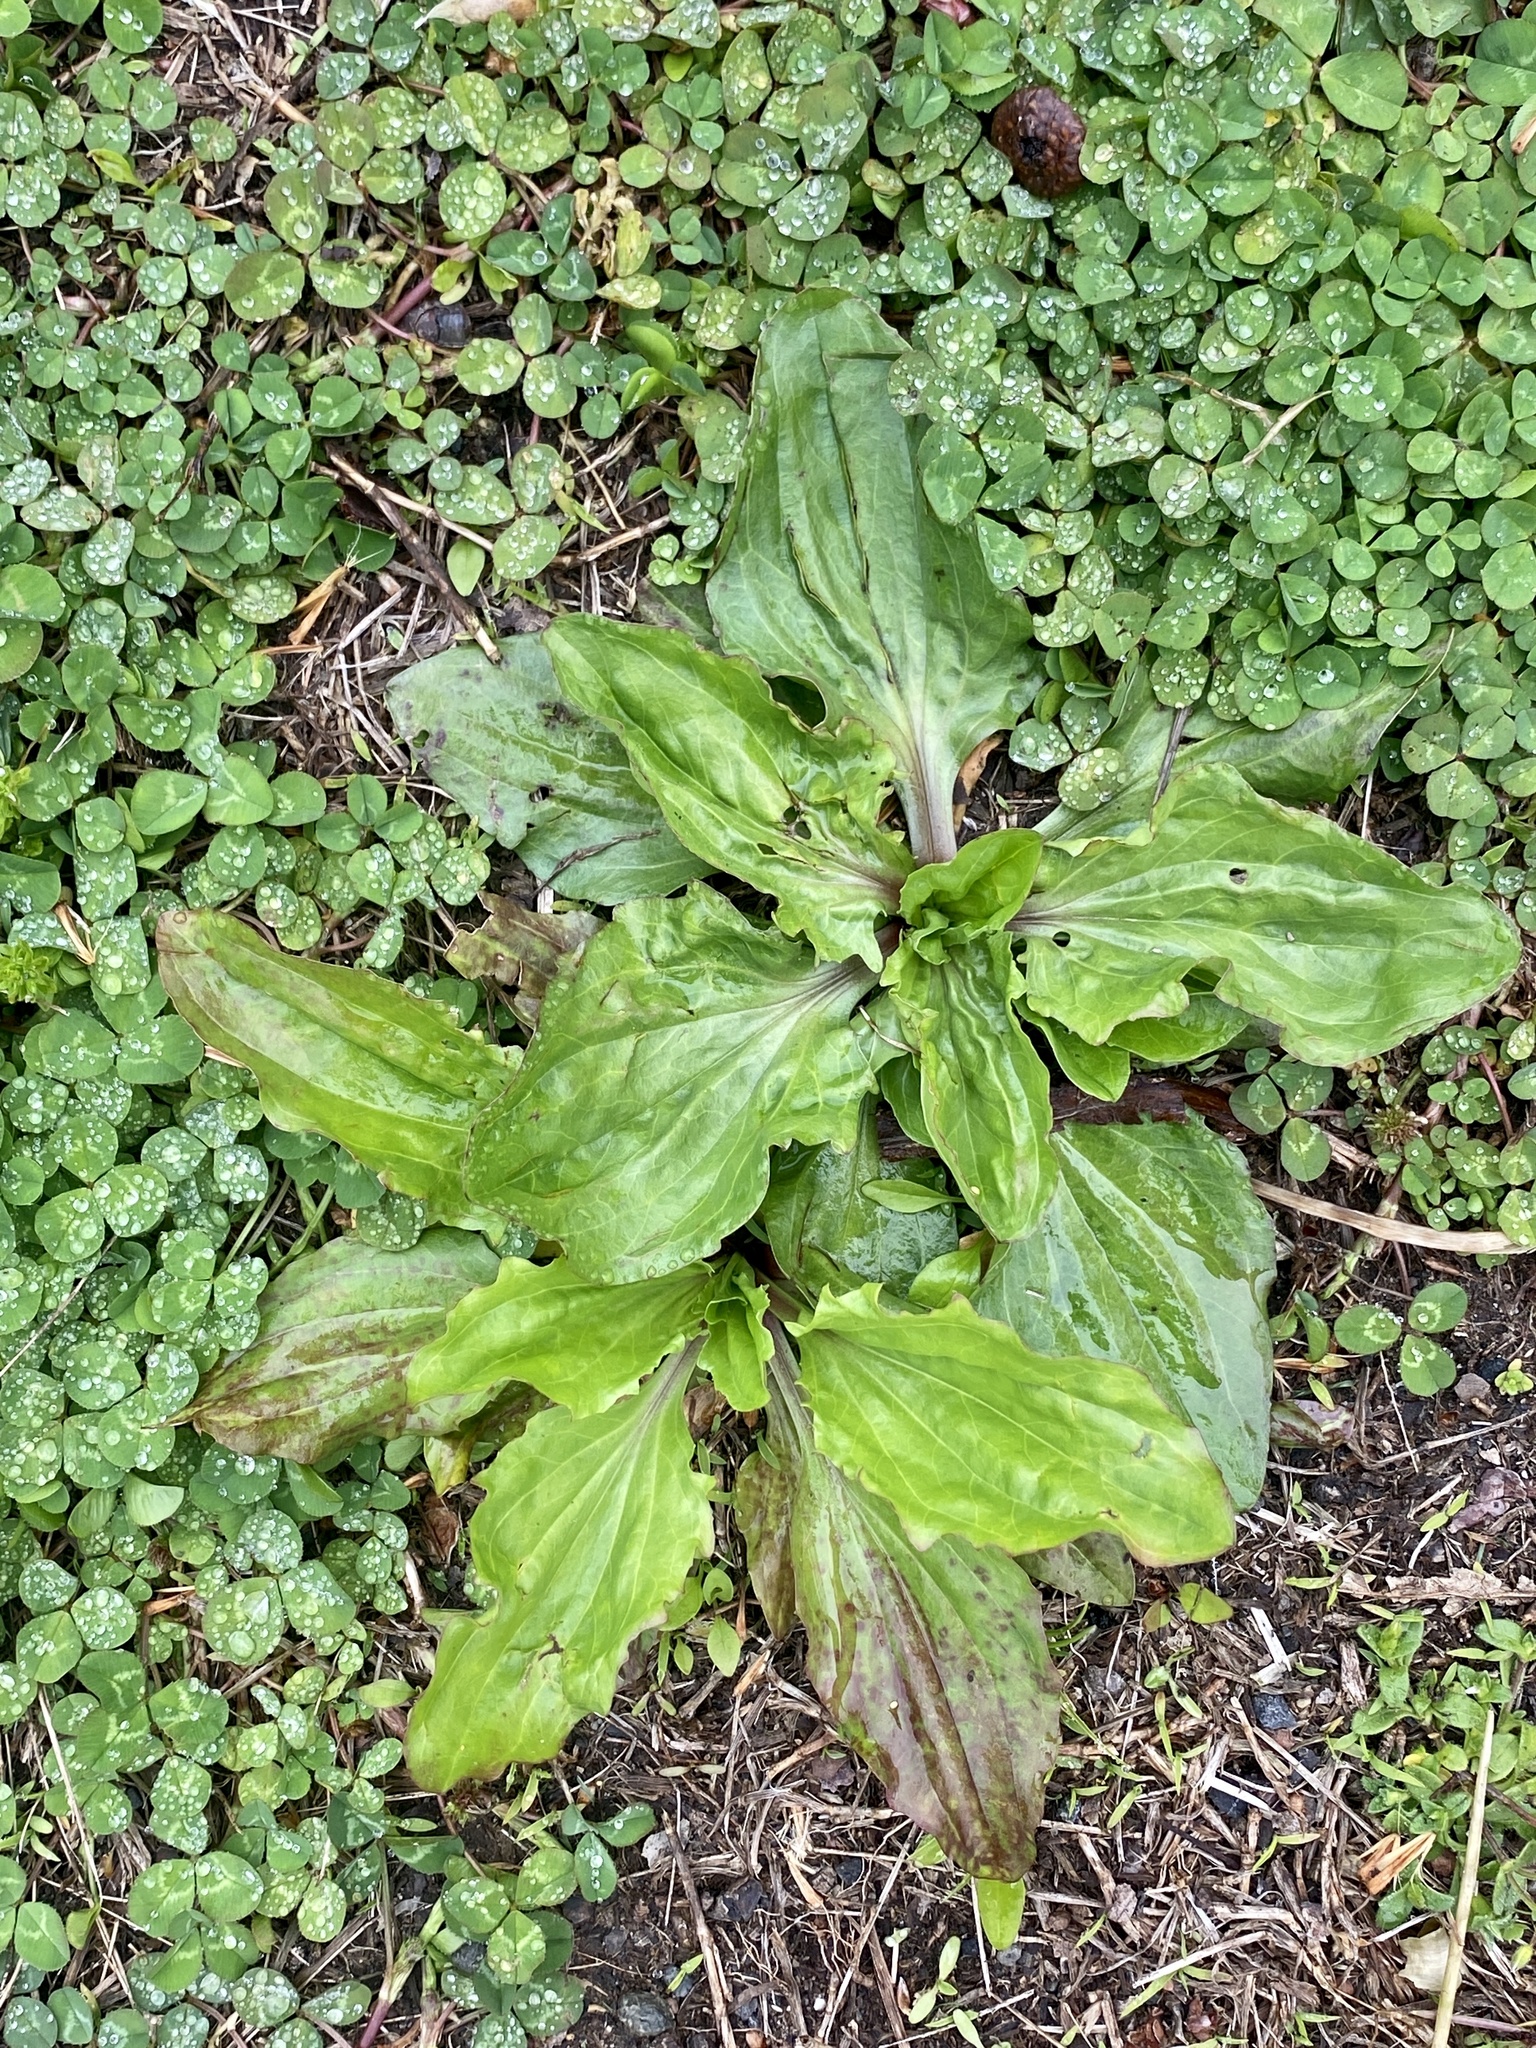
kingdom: Plantae
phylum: Tracheophyta
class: Magnoliopsida
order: Lamiales
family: Plantaginaceae
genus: Plantago
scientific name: Plantago rugelii
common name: American plantain
